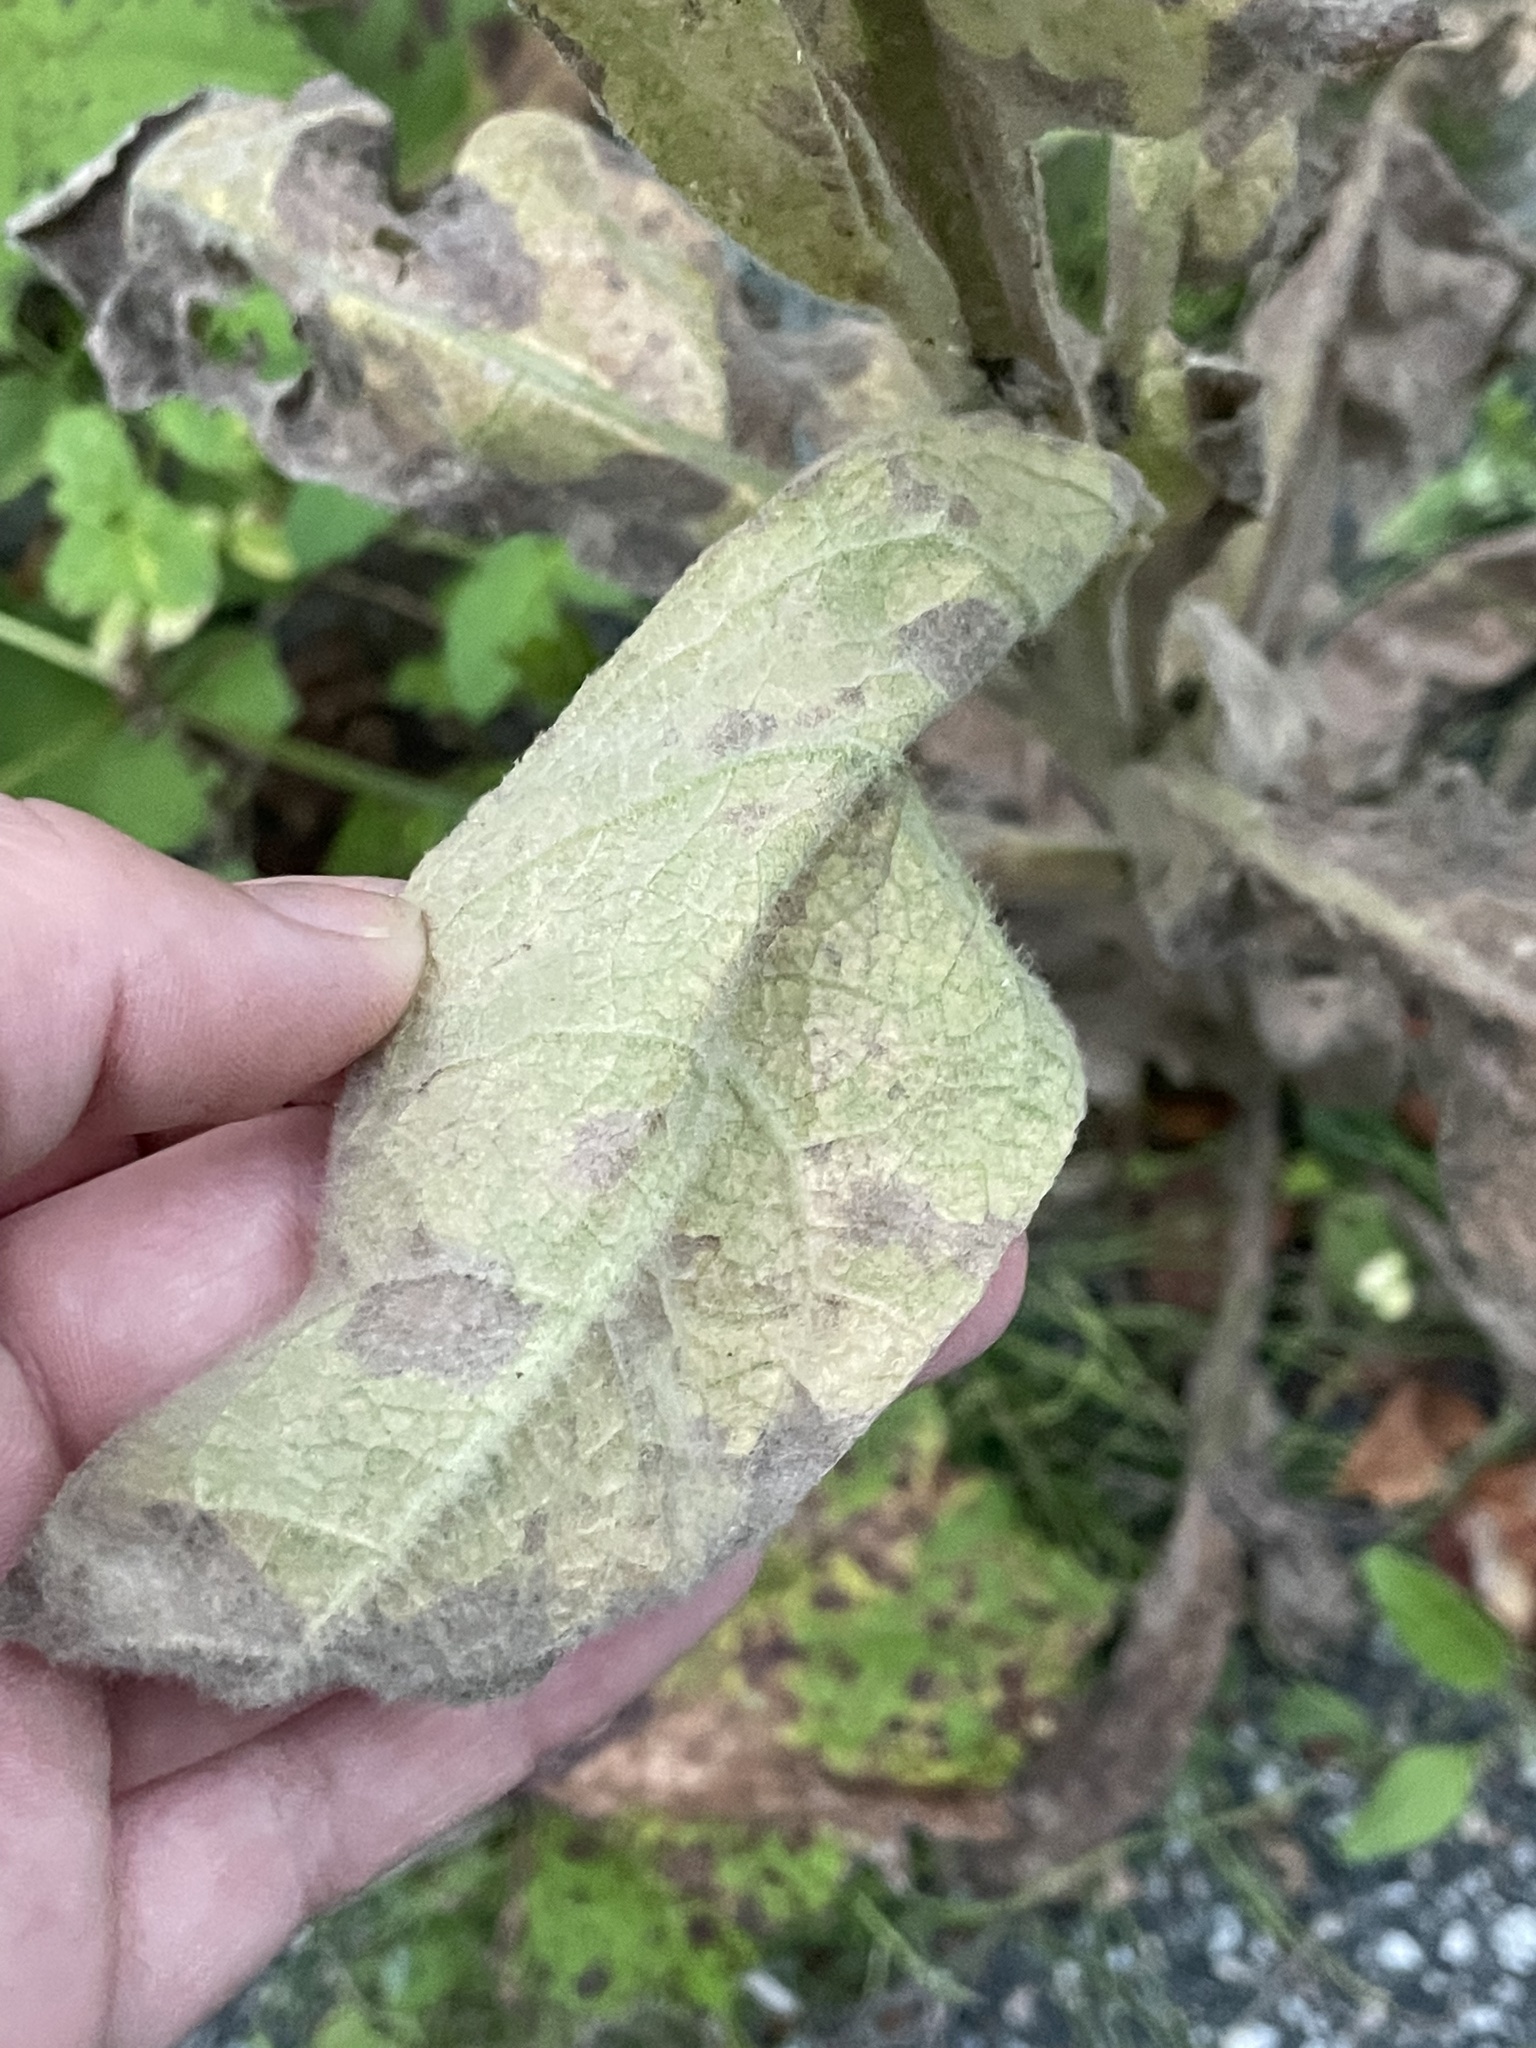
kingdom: Plantae
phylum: Tracheophyta
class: Magnoliopsida
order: Lamiales
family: Scrophulariaceae
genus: Verbascum
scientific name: Verbascum thapsus
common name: Common mullein
